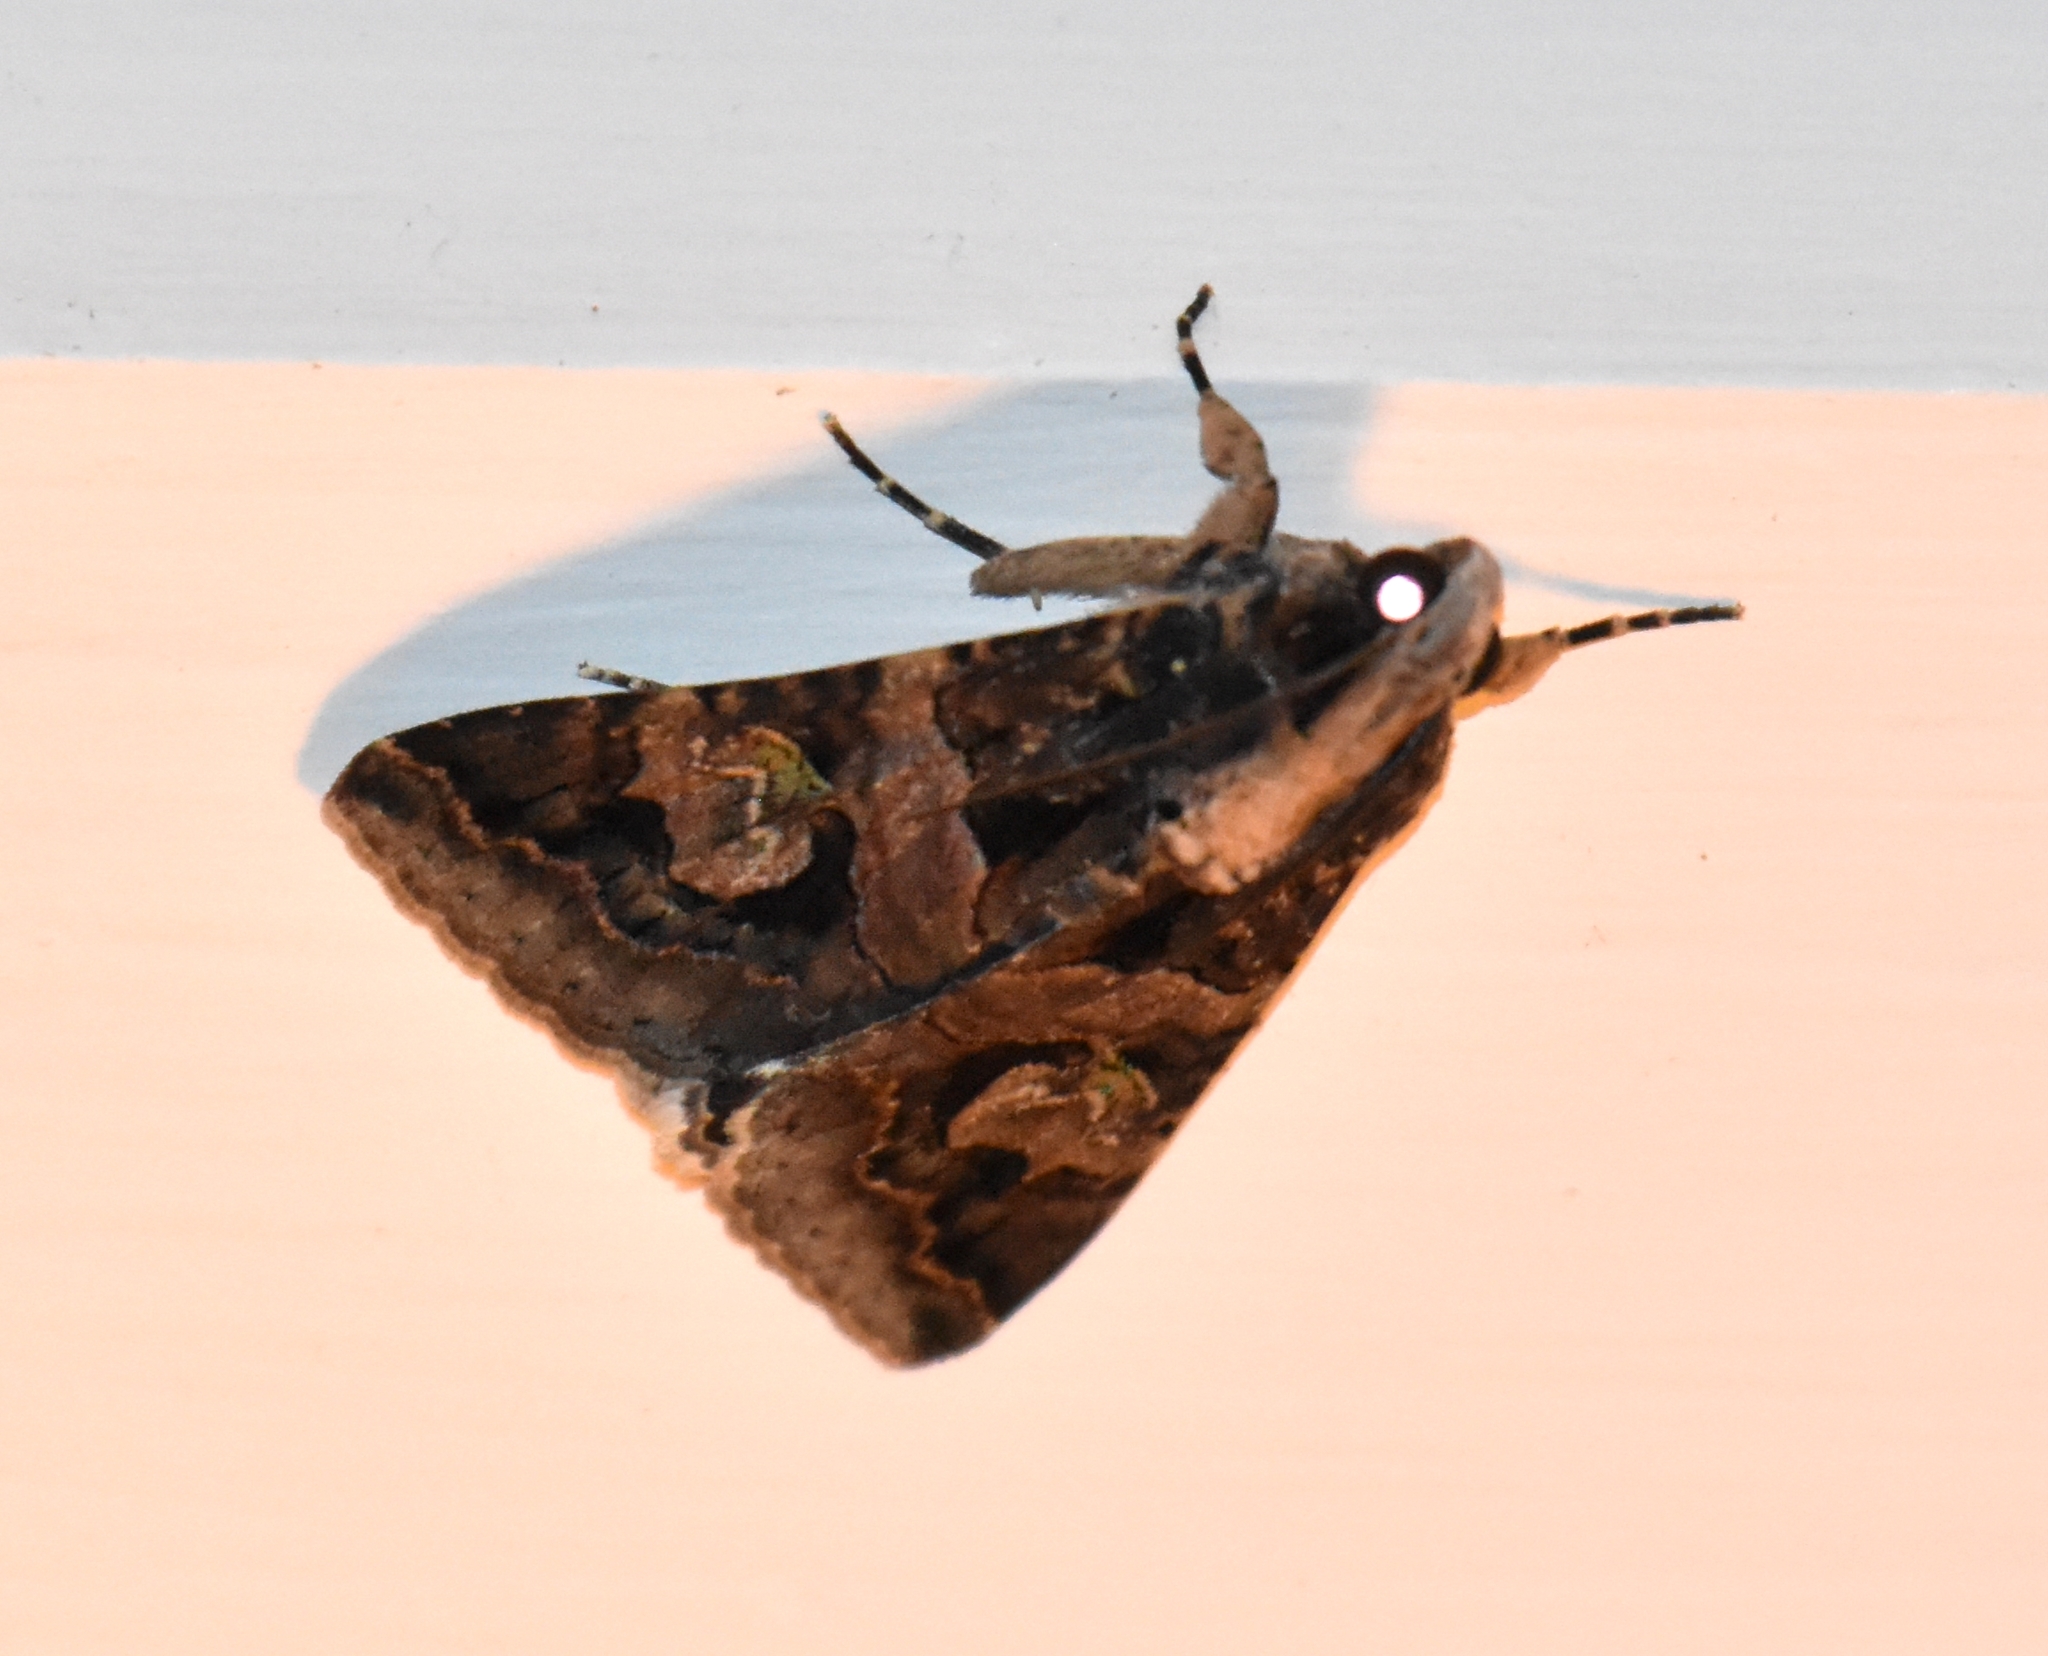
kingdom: Animalia
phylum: Arthropoda
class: Insecta
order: Lepidoptera
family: Erebidae
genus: Melipotis
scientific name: Melipotis famelica
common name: Famelica melipotis moth
